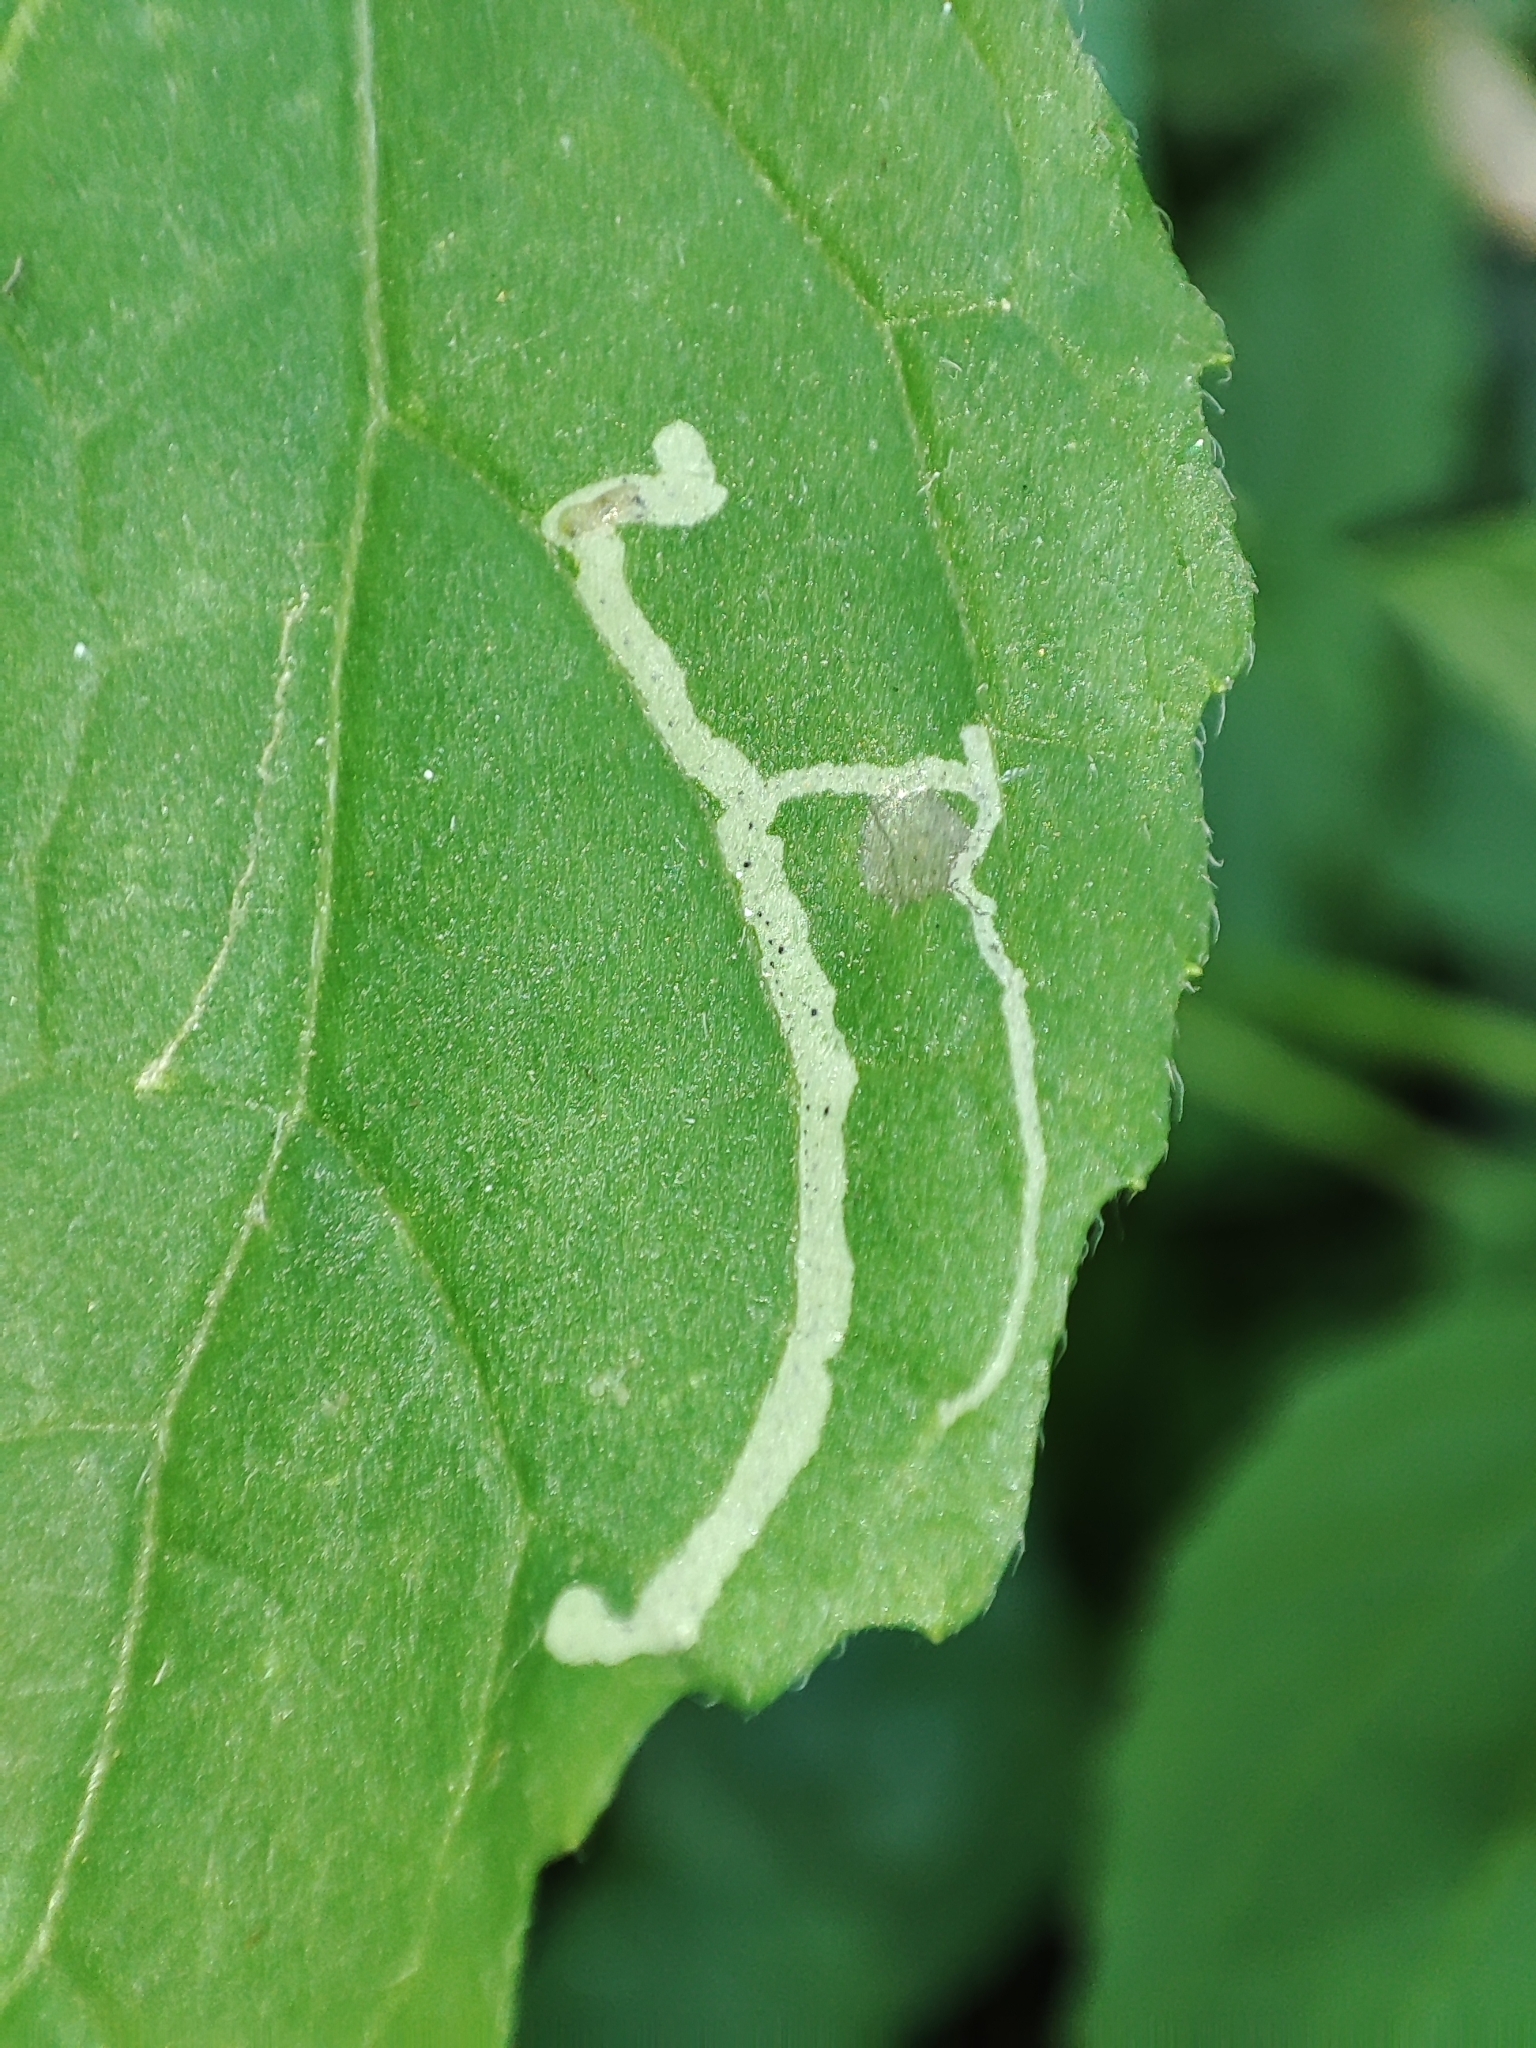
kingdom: Plantae
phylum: Tracheophyta
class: Magnoliopsida
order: Asterales
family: Asteraceae
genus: Galinsoga
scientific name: Galinsoga parviflora
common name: Gallant soldier
